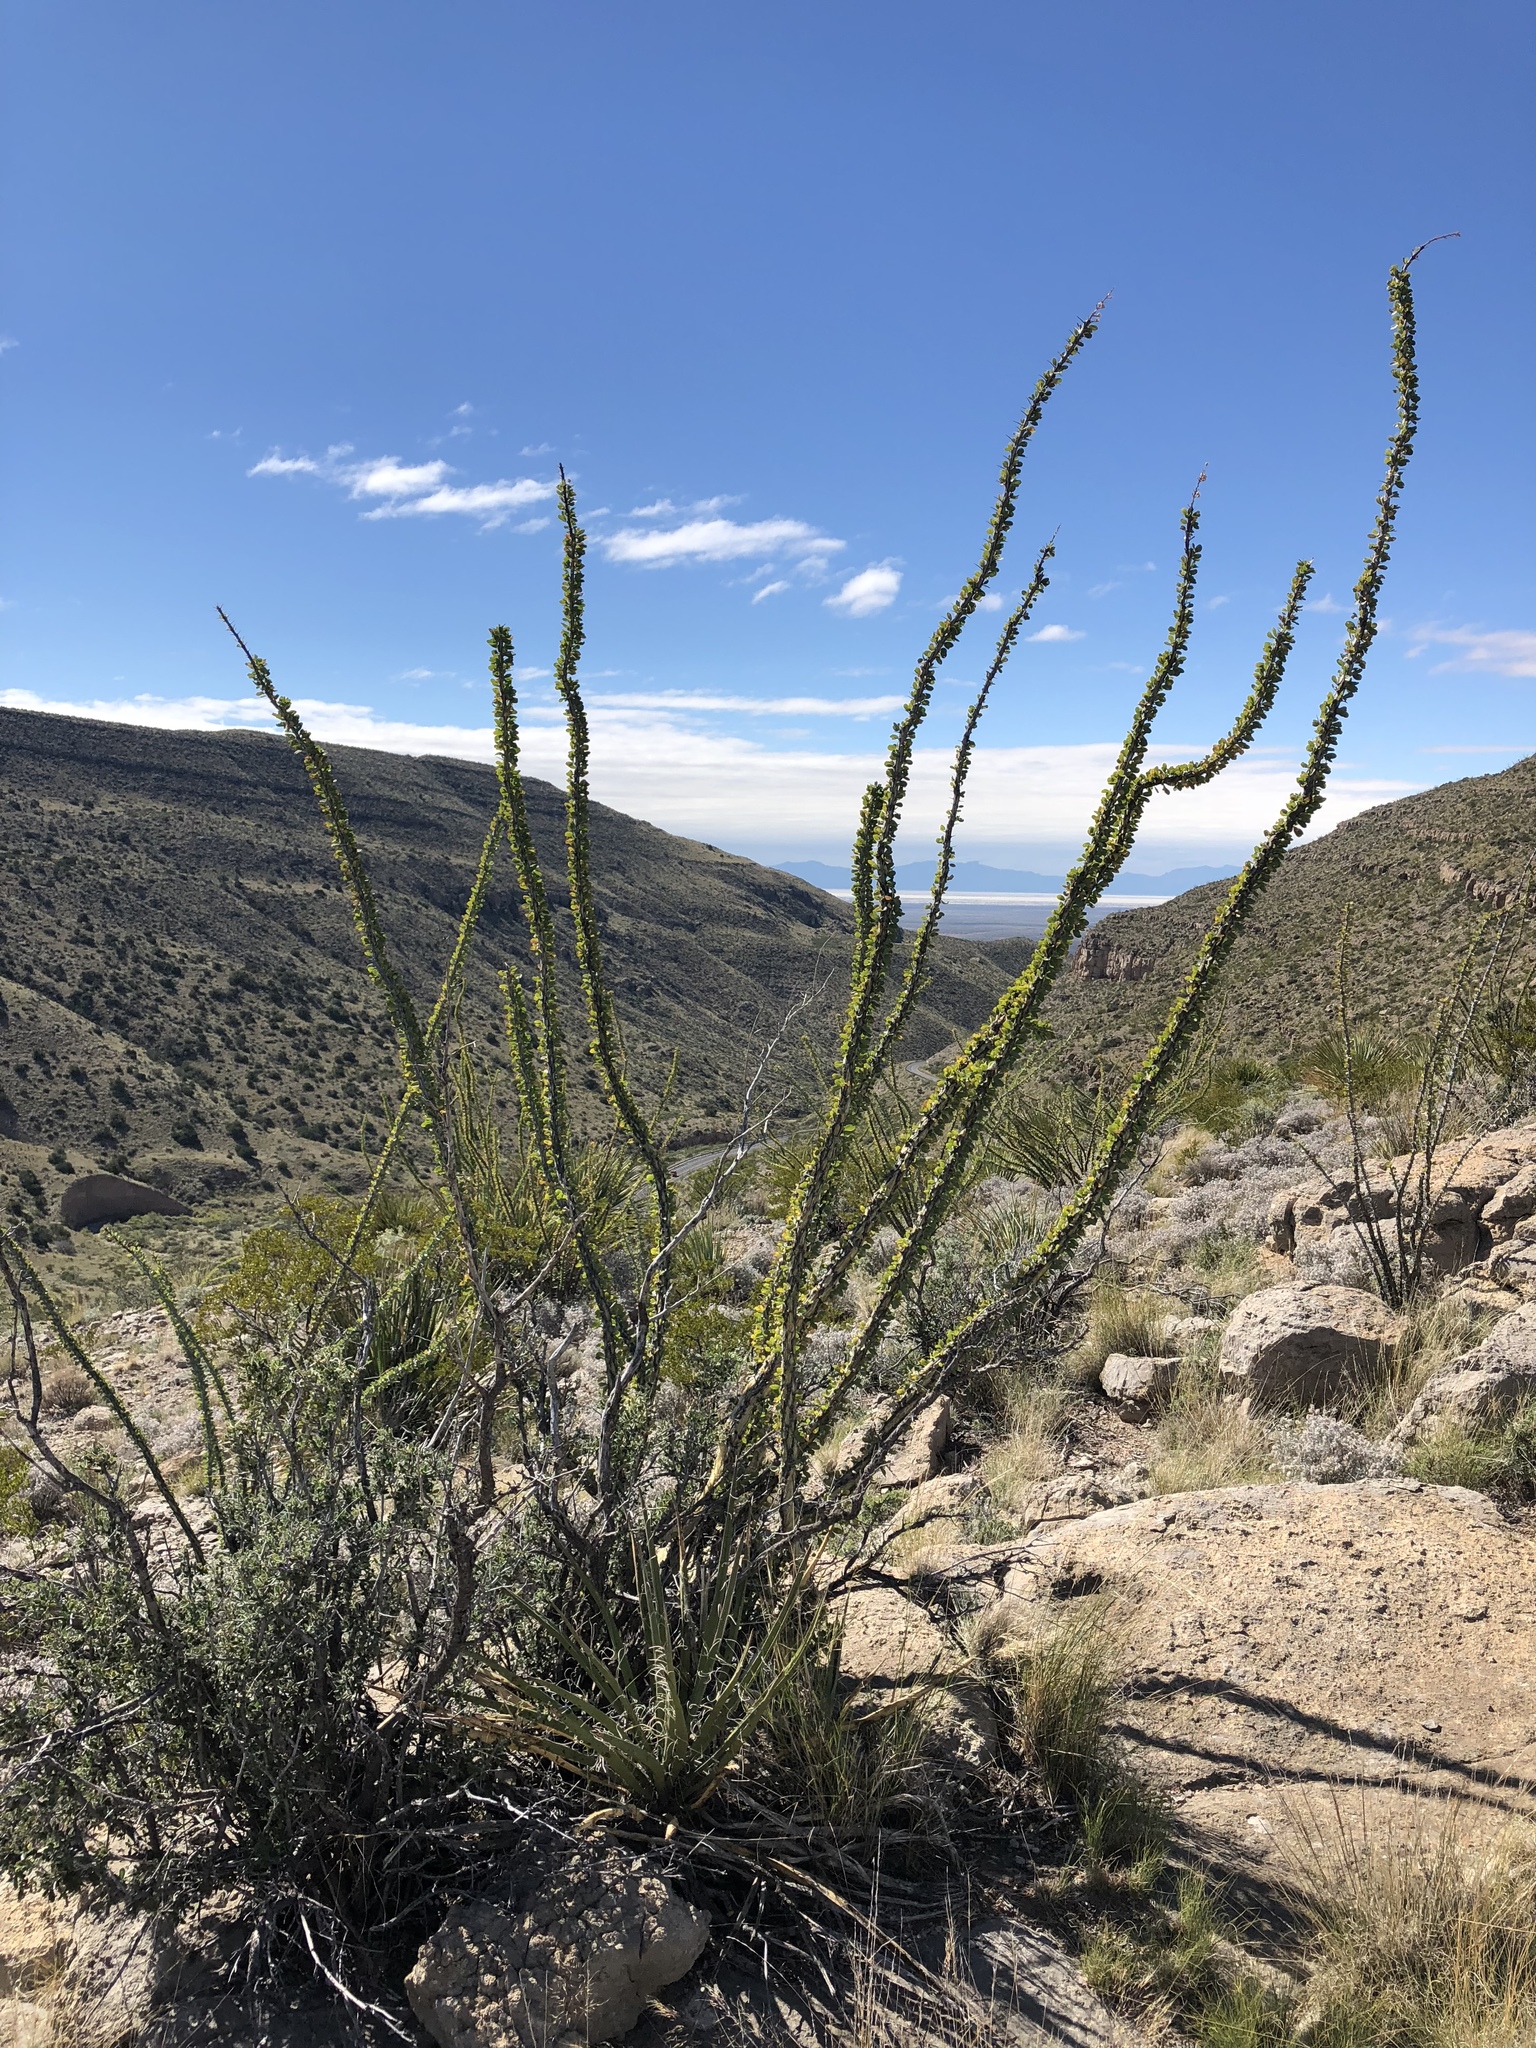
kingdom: Plantae
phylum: Tracheophyta
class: Magnoliopsida
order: Ericales
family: Fouquieriaceae
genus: Fouquieria
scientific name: Fouquieria splendens
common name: Vine-cactus
